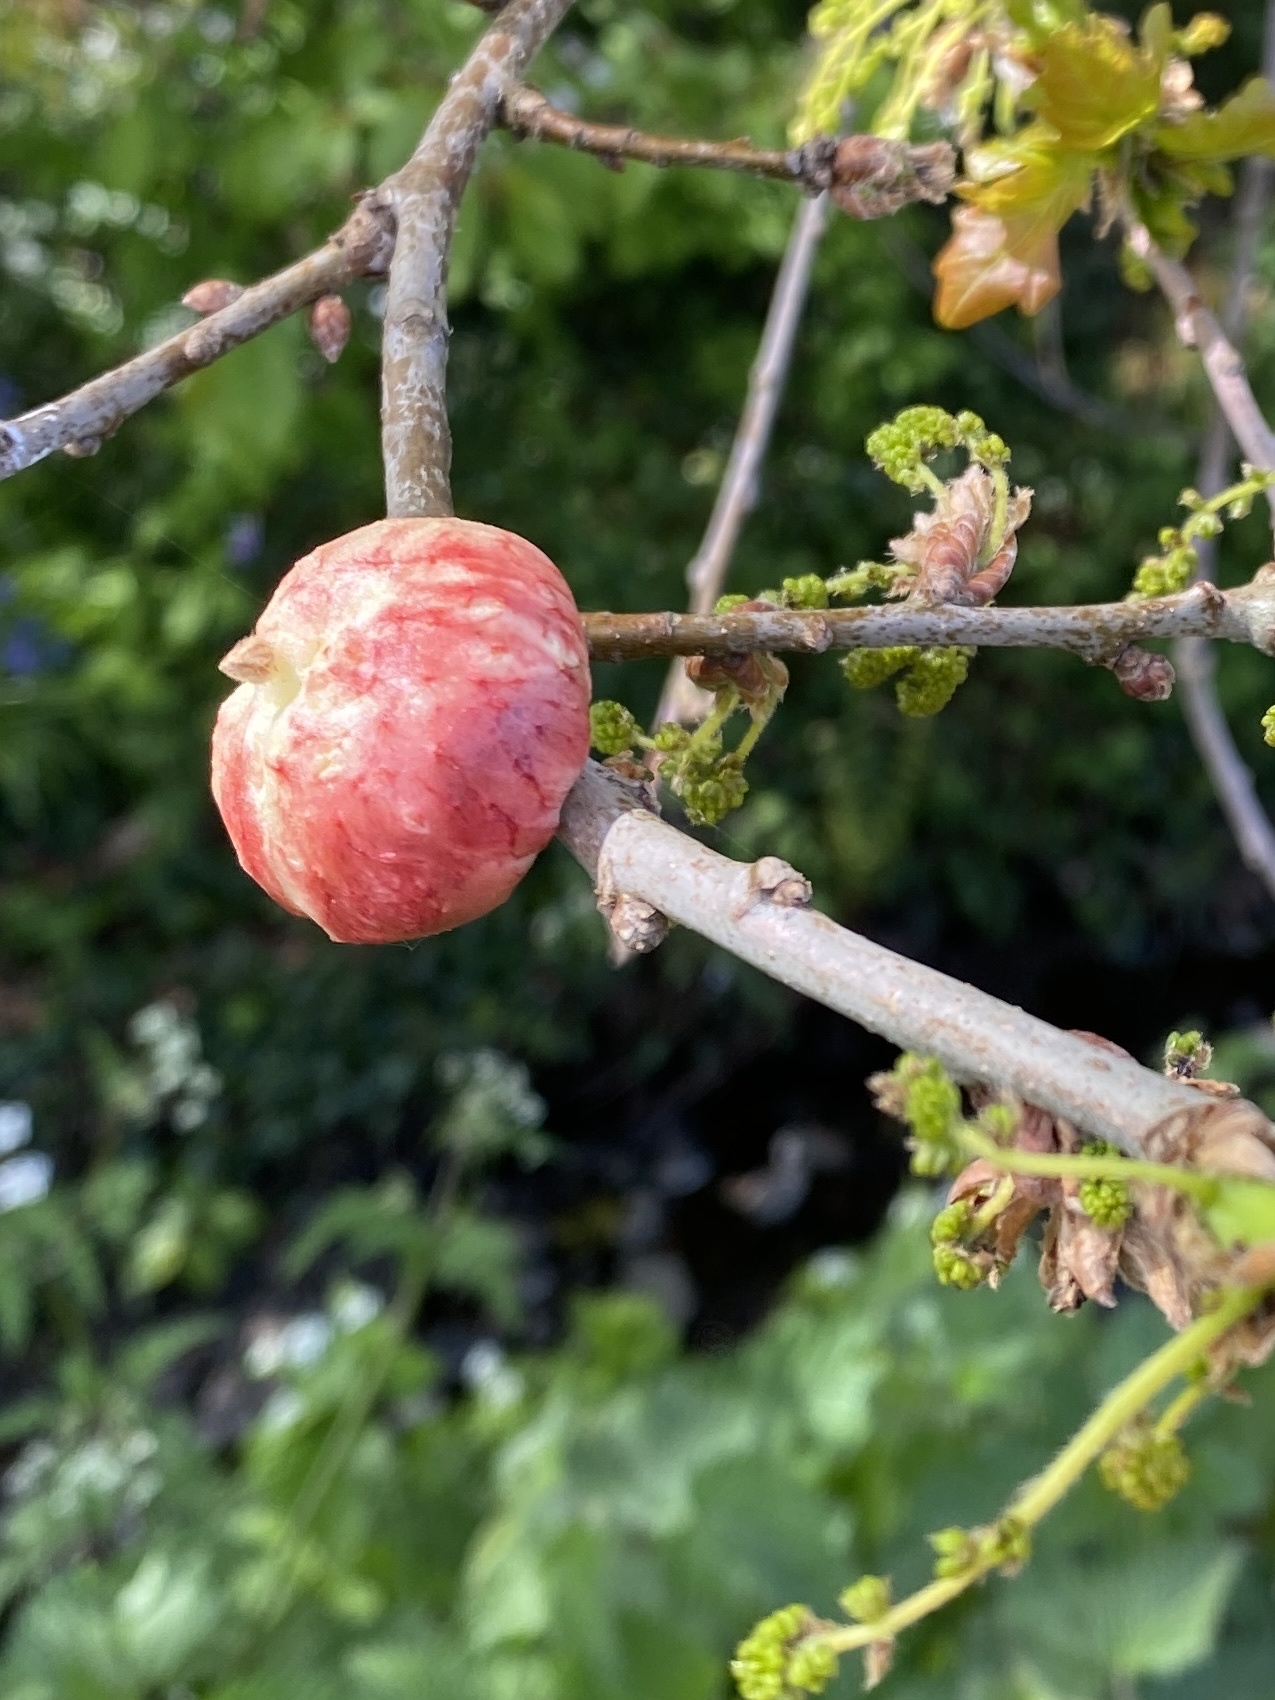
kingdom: Animalia
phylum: Arthropoda
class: Insecta
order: Hymenoptera
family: Cynipidae
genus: Biorhiza
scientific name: Biorhiza pallida
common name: Oak apple
